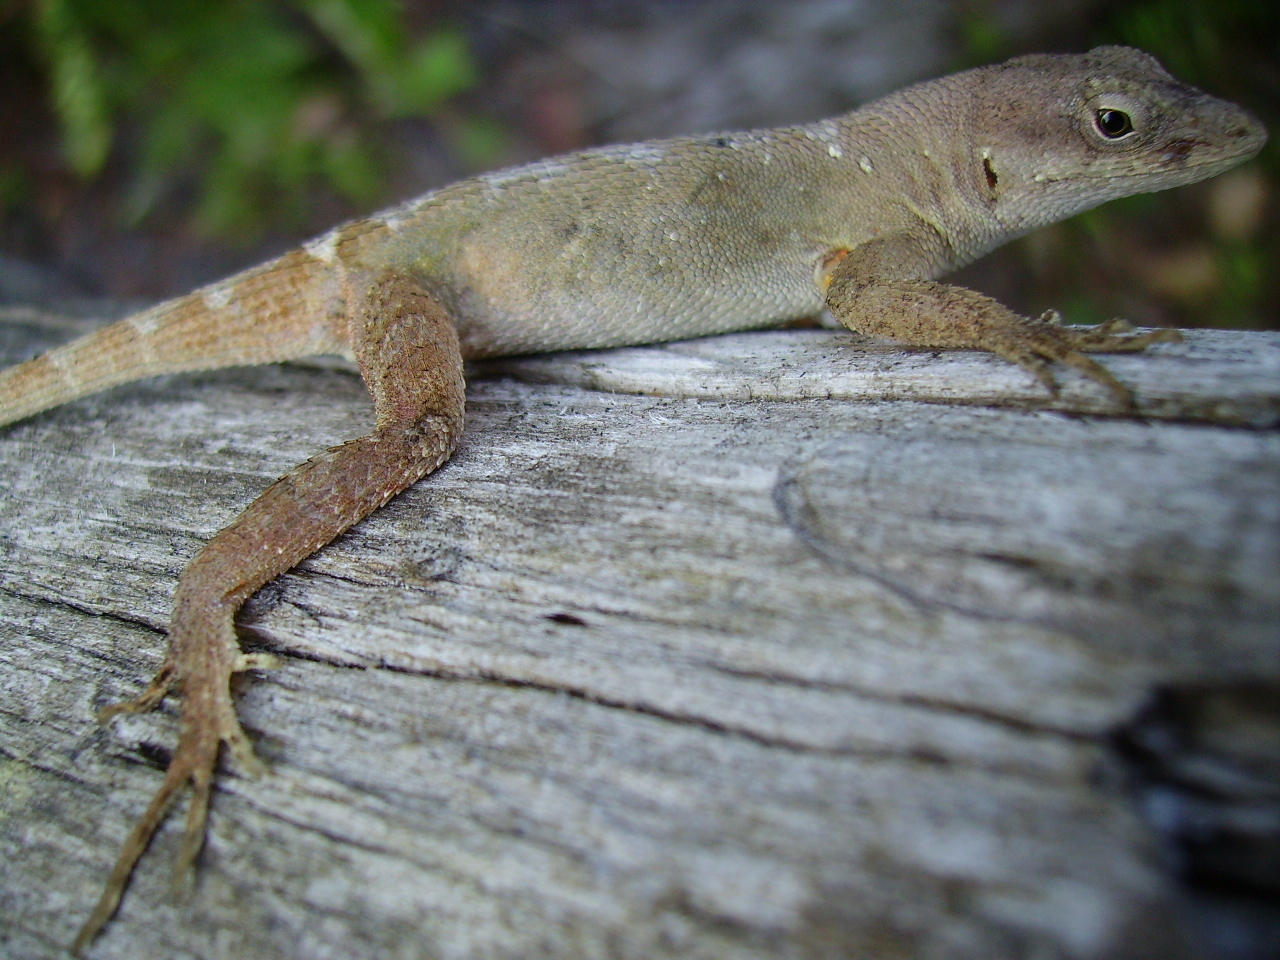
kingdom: Animalia
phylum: Chordata
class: Squamata
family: Dactyloidae
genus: Anolis
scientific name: Anolis mccraniei
